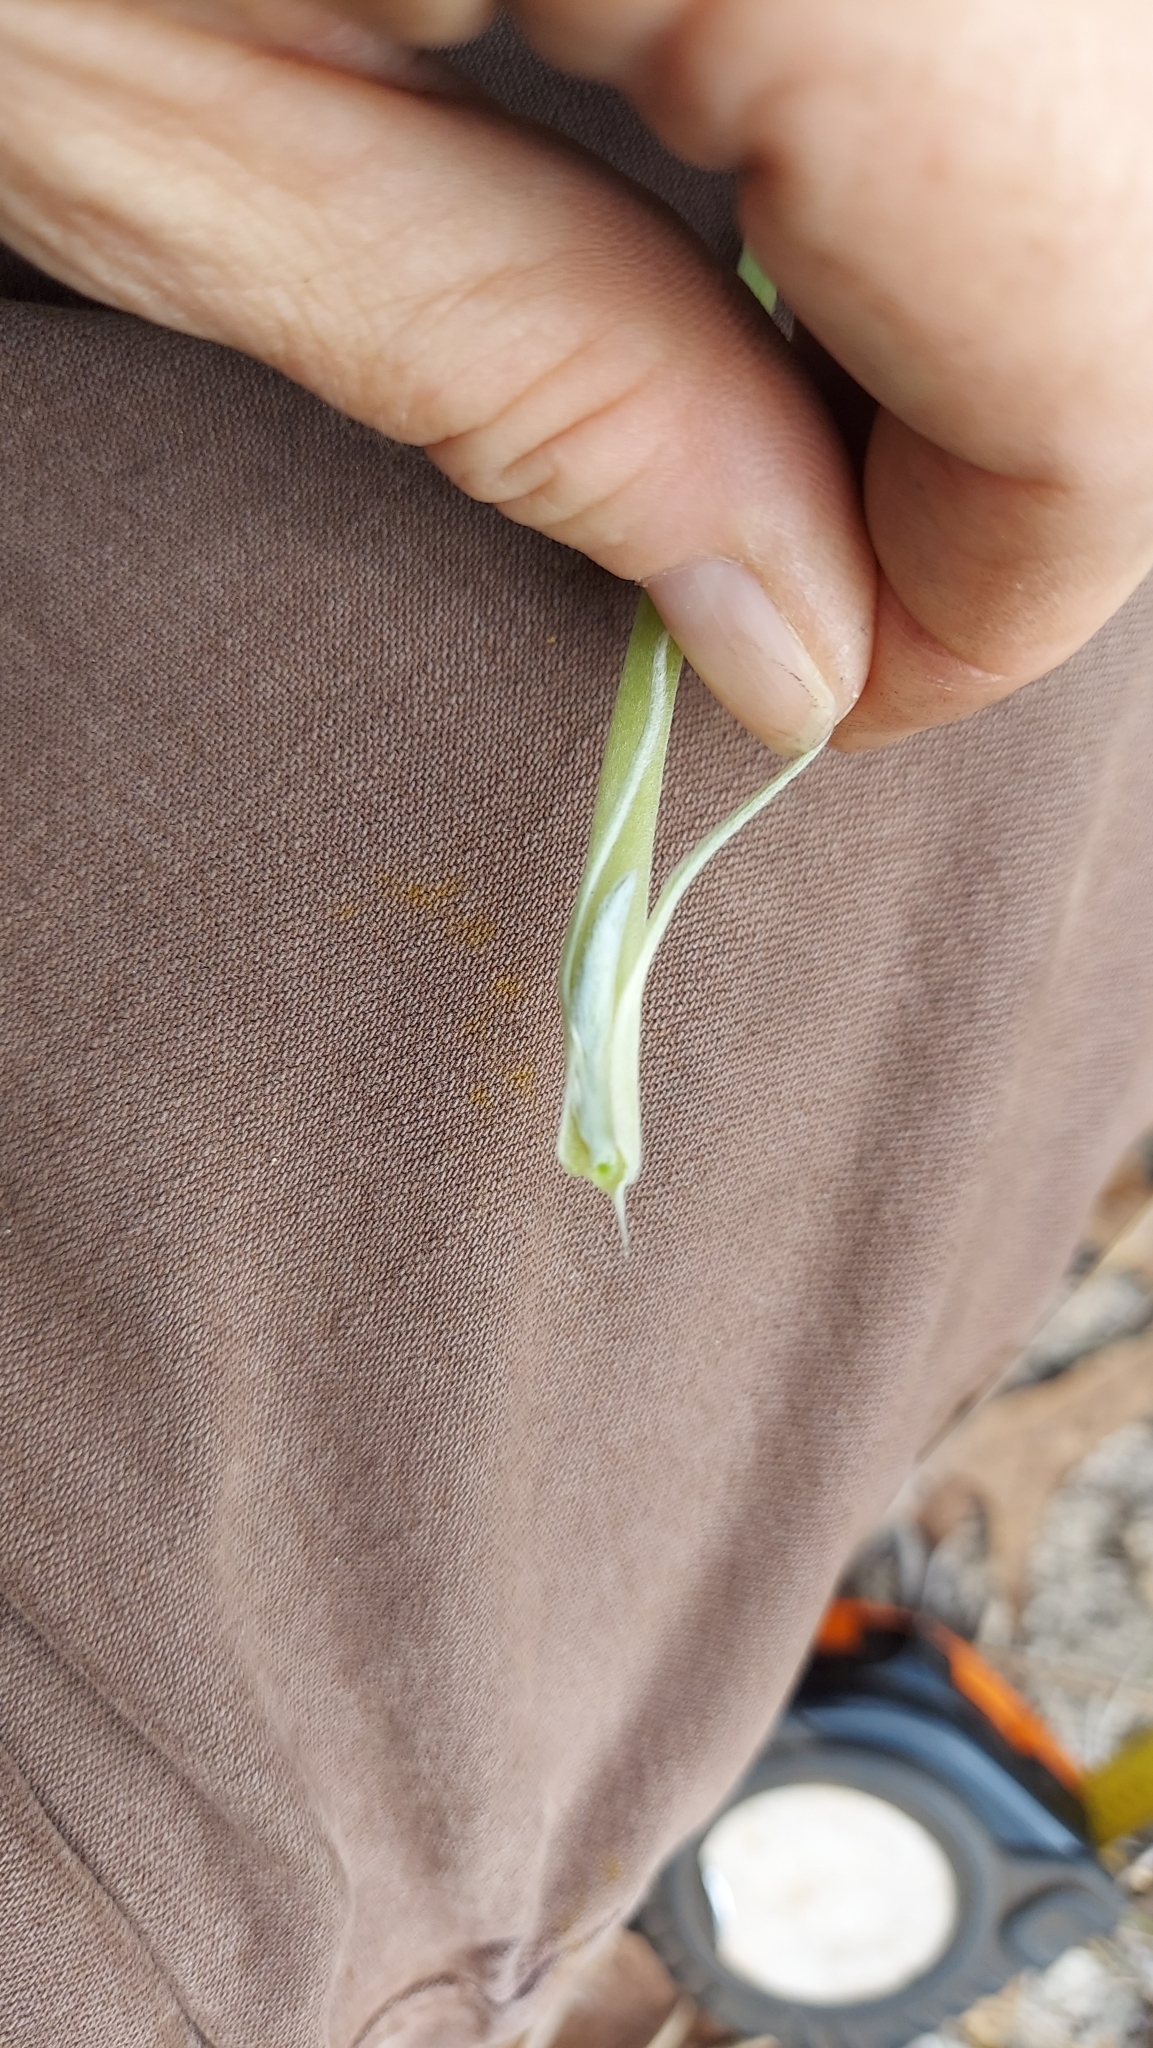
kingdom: Plantae
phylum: Tracheophyta
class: Magnoliopsida
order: Fabales
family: Fabaceae
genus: Lupinus
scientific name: Lupinus
